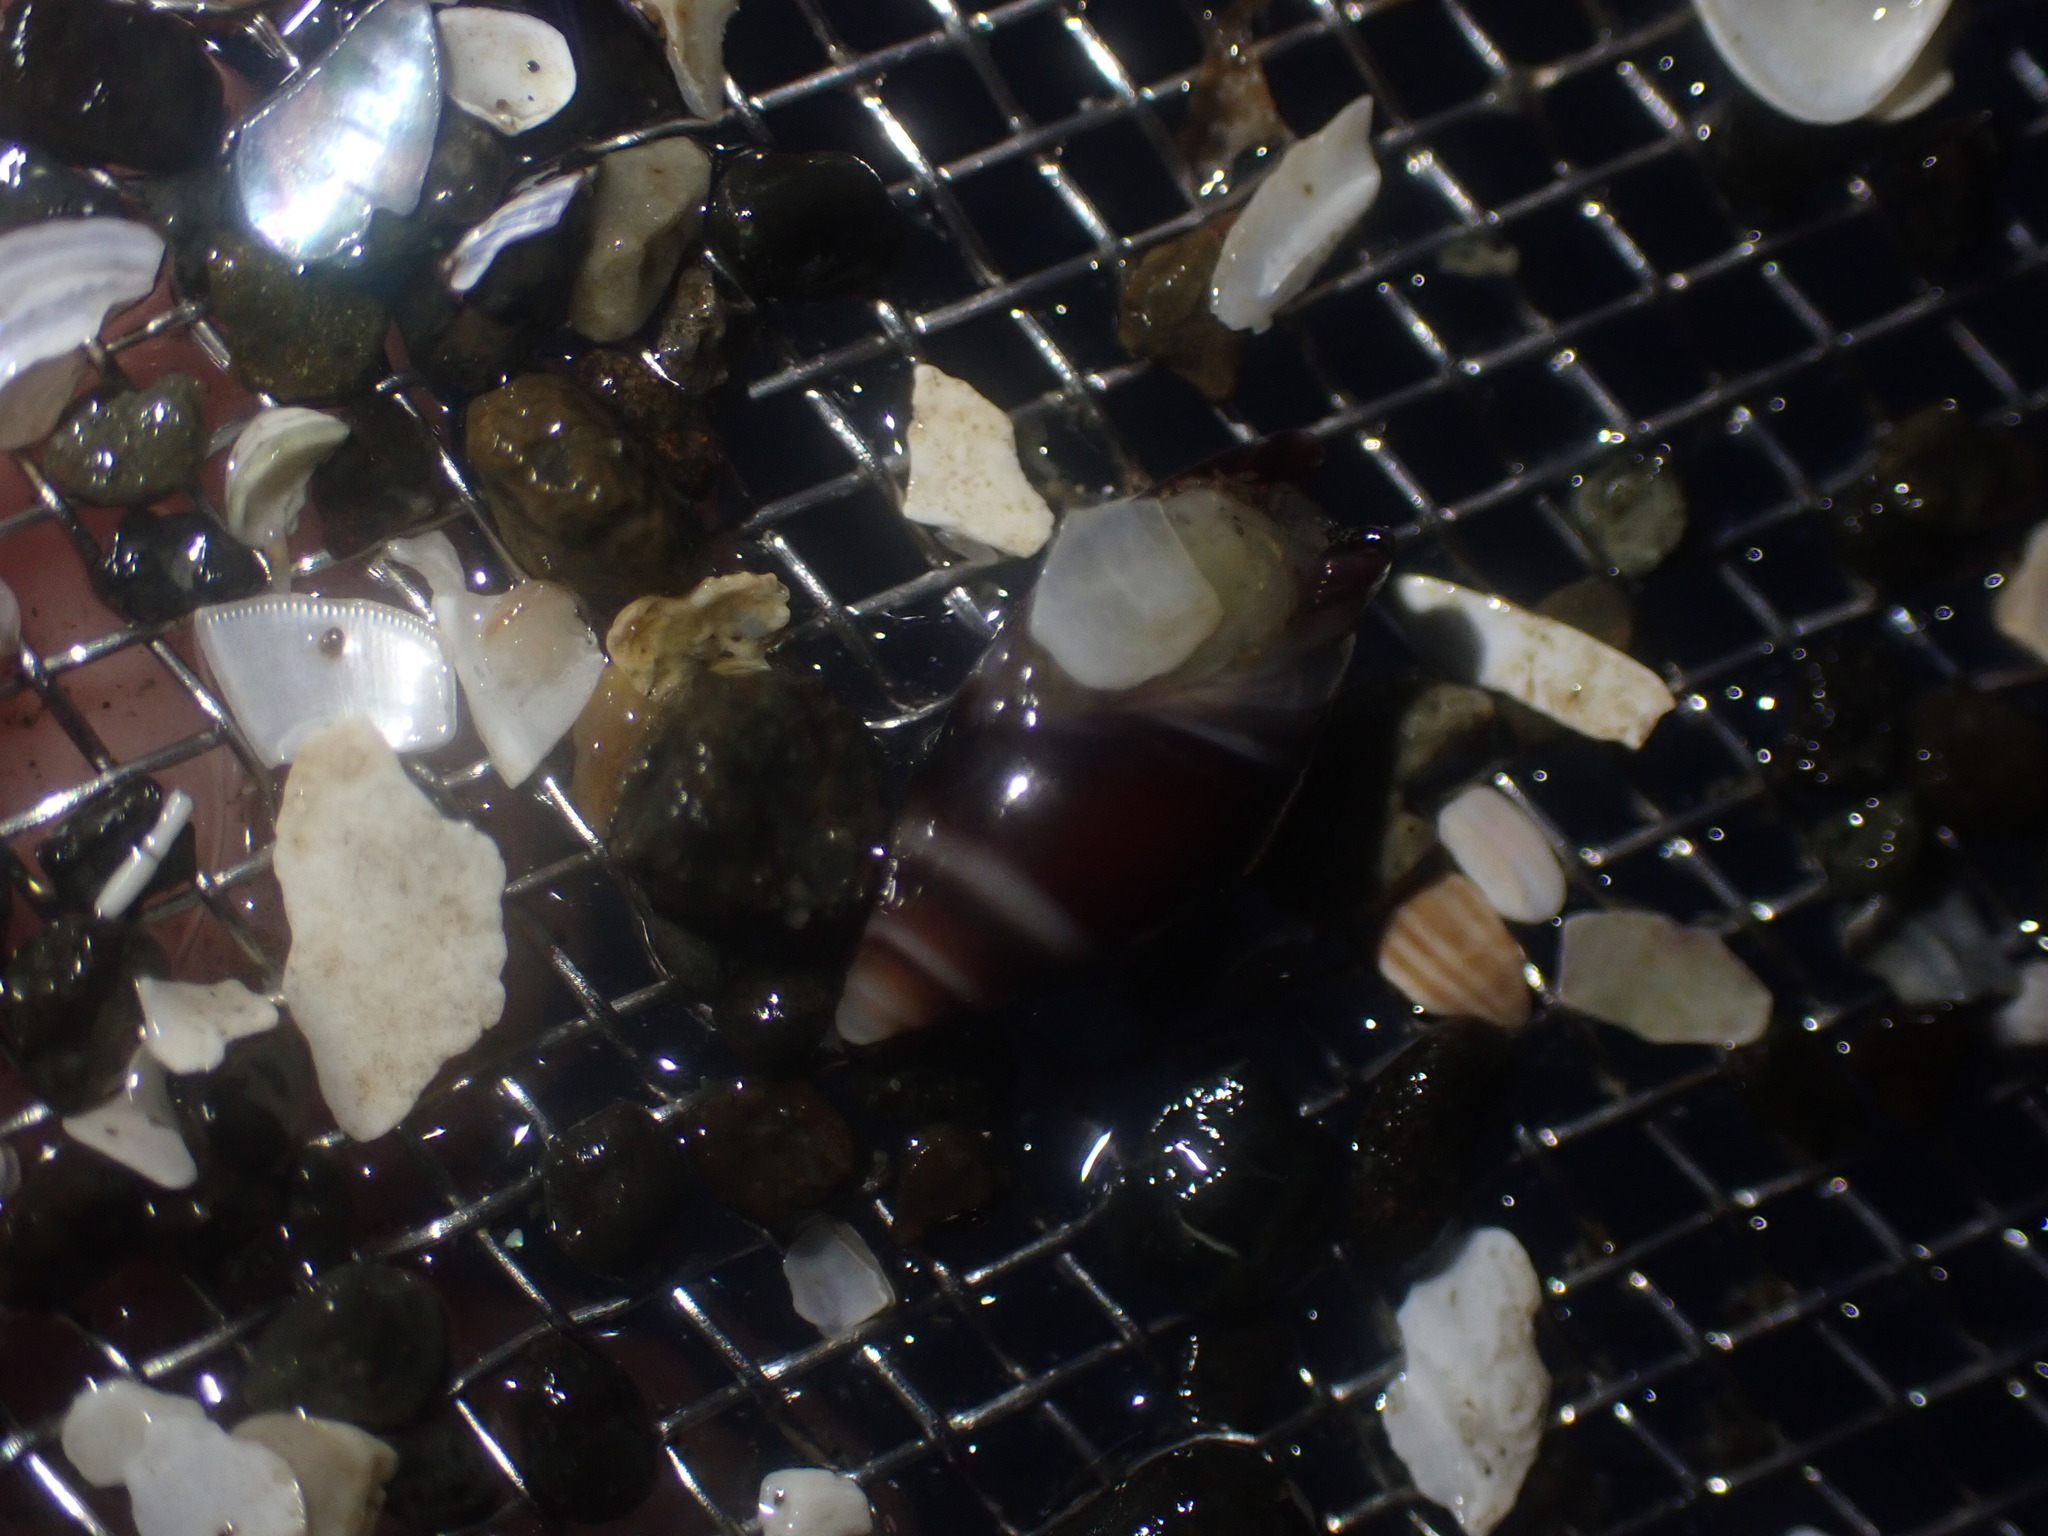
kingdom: Animalia
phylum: Mollusca
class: Gastropoda
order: Neogastropoda
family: Ancillariidae
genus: Amalda
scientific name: Amalda australis
